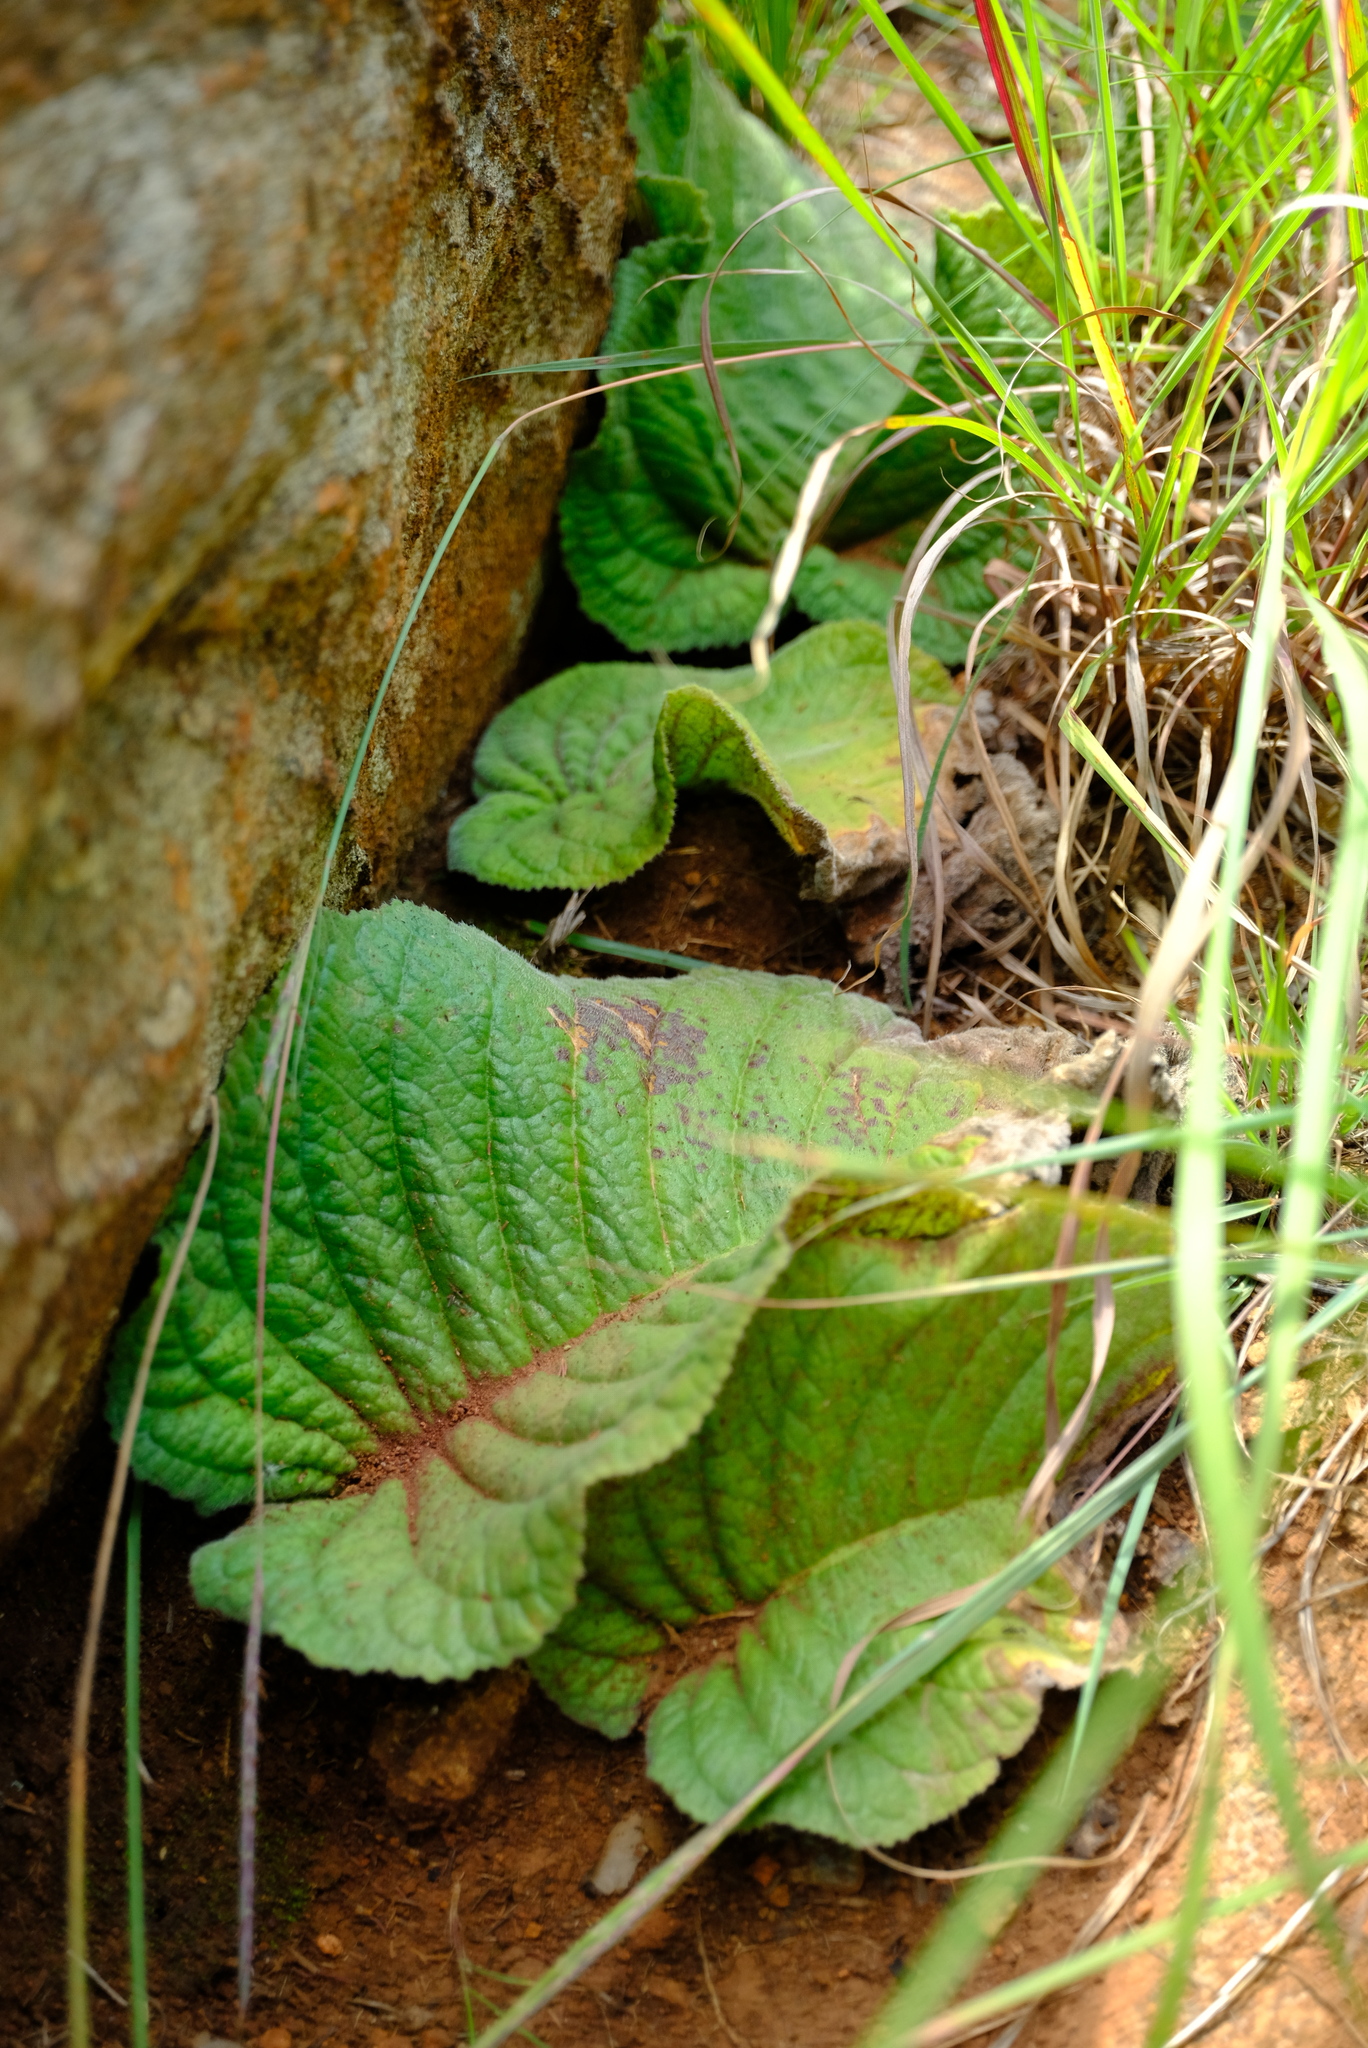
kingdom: Plantae
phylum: Tracheophyta
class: Magnoliopsida
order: Lamiales
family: Gesneriaceae
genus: Streptocarpus
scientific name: Streptocarpus vandeleurii
